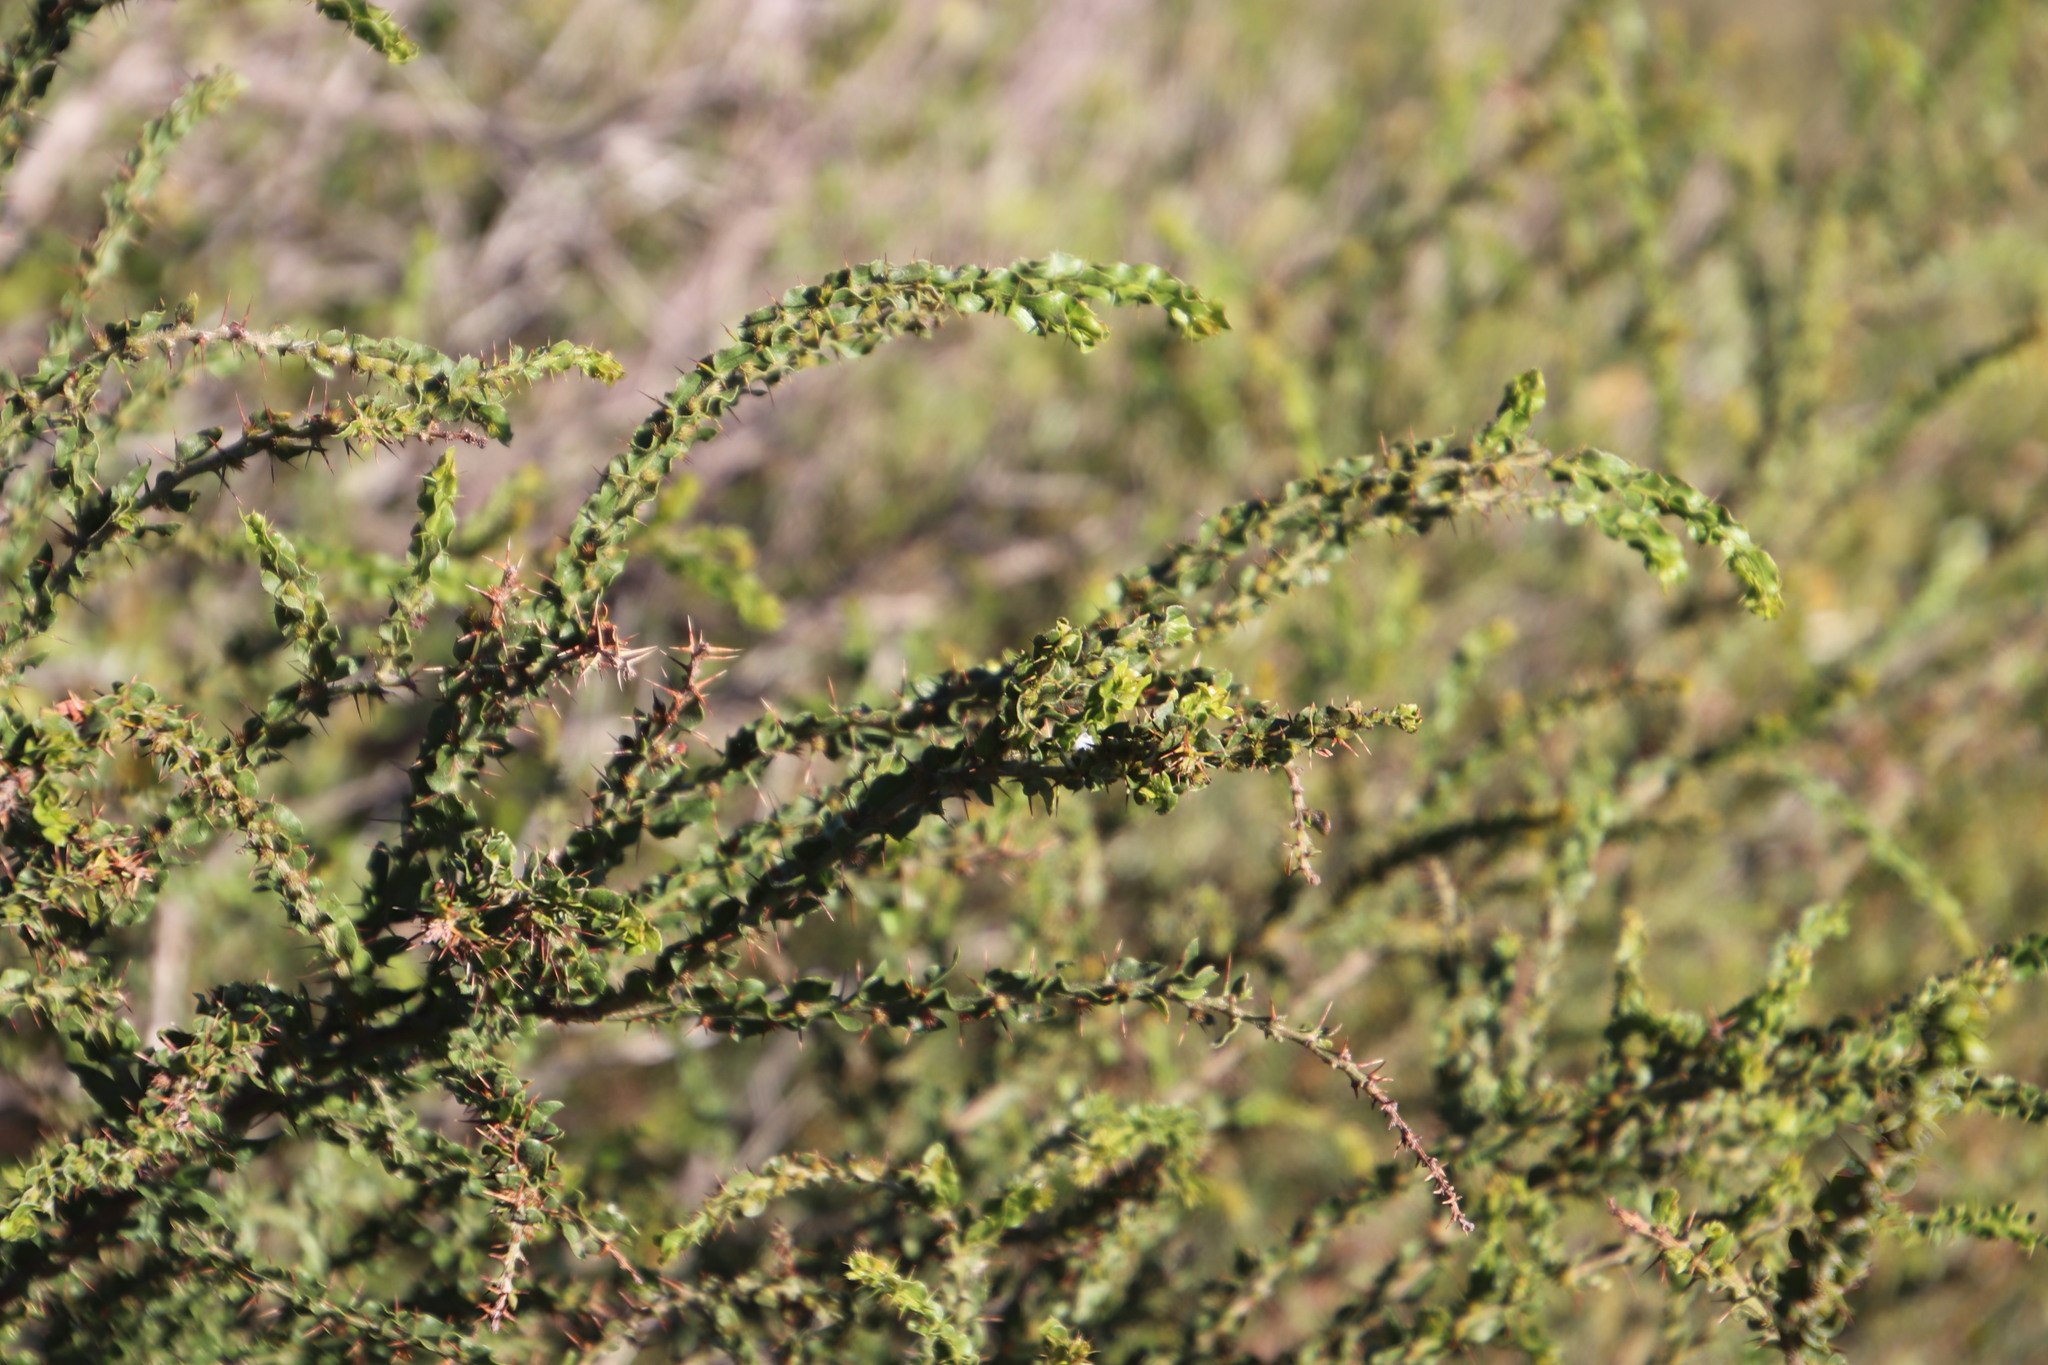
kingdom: Plantae
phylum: Tracheophyta
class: Magnoliopsida
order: Fabales
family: Fabaceae
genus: Acacia
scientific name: Acacia paradoxa
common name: Paradox acacia
